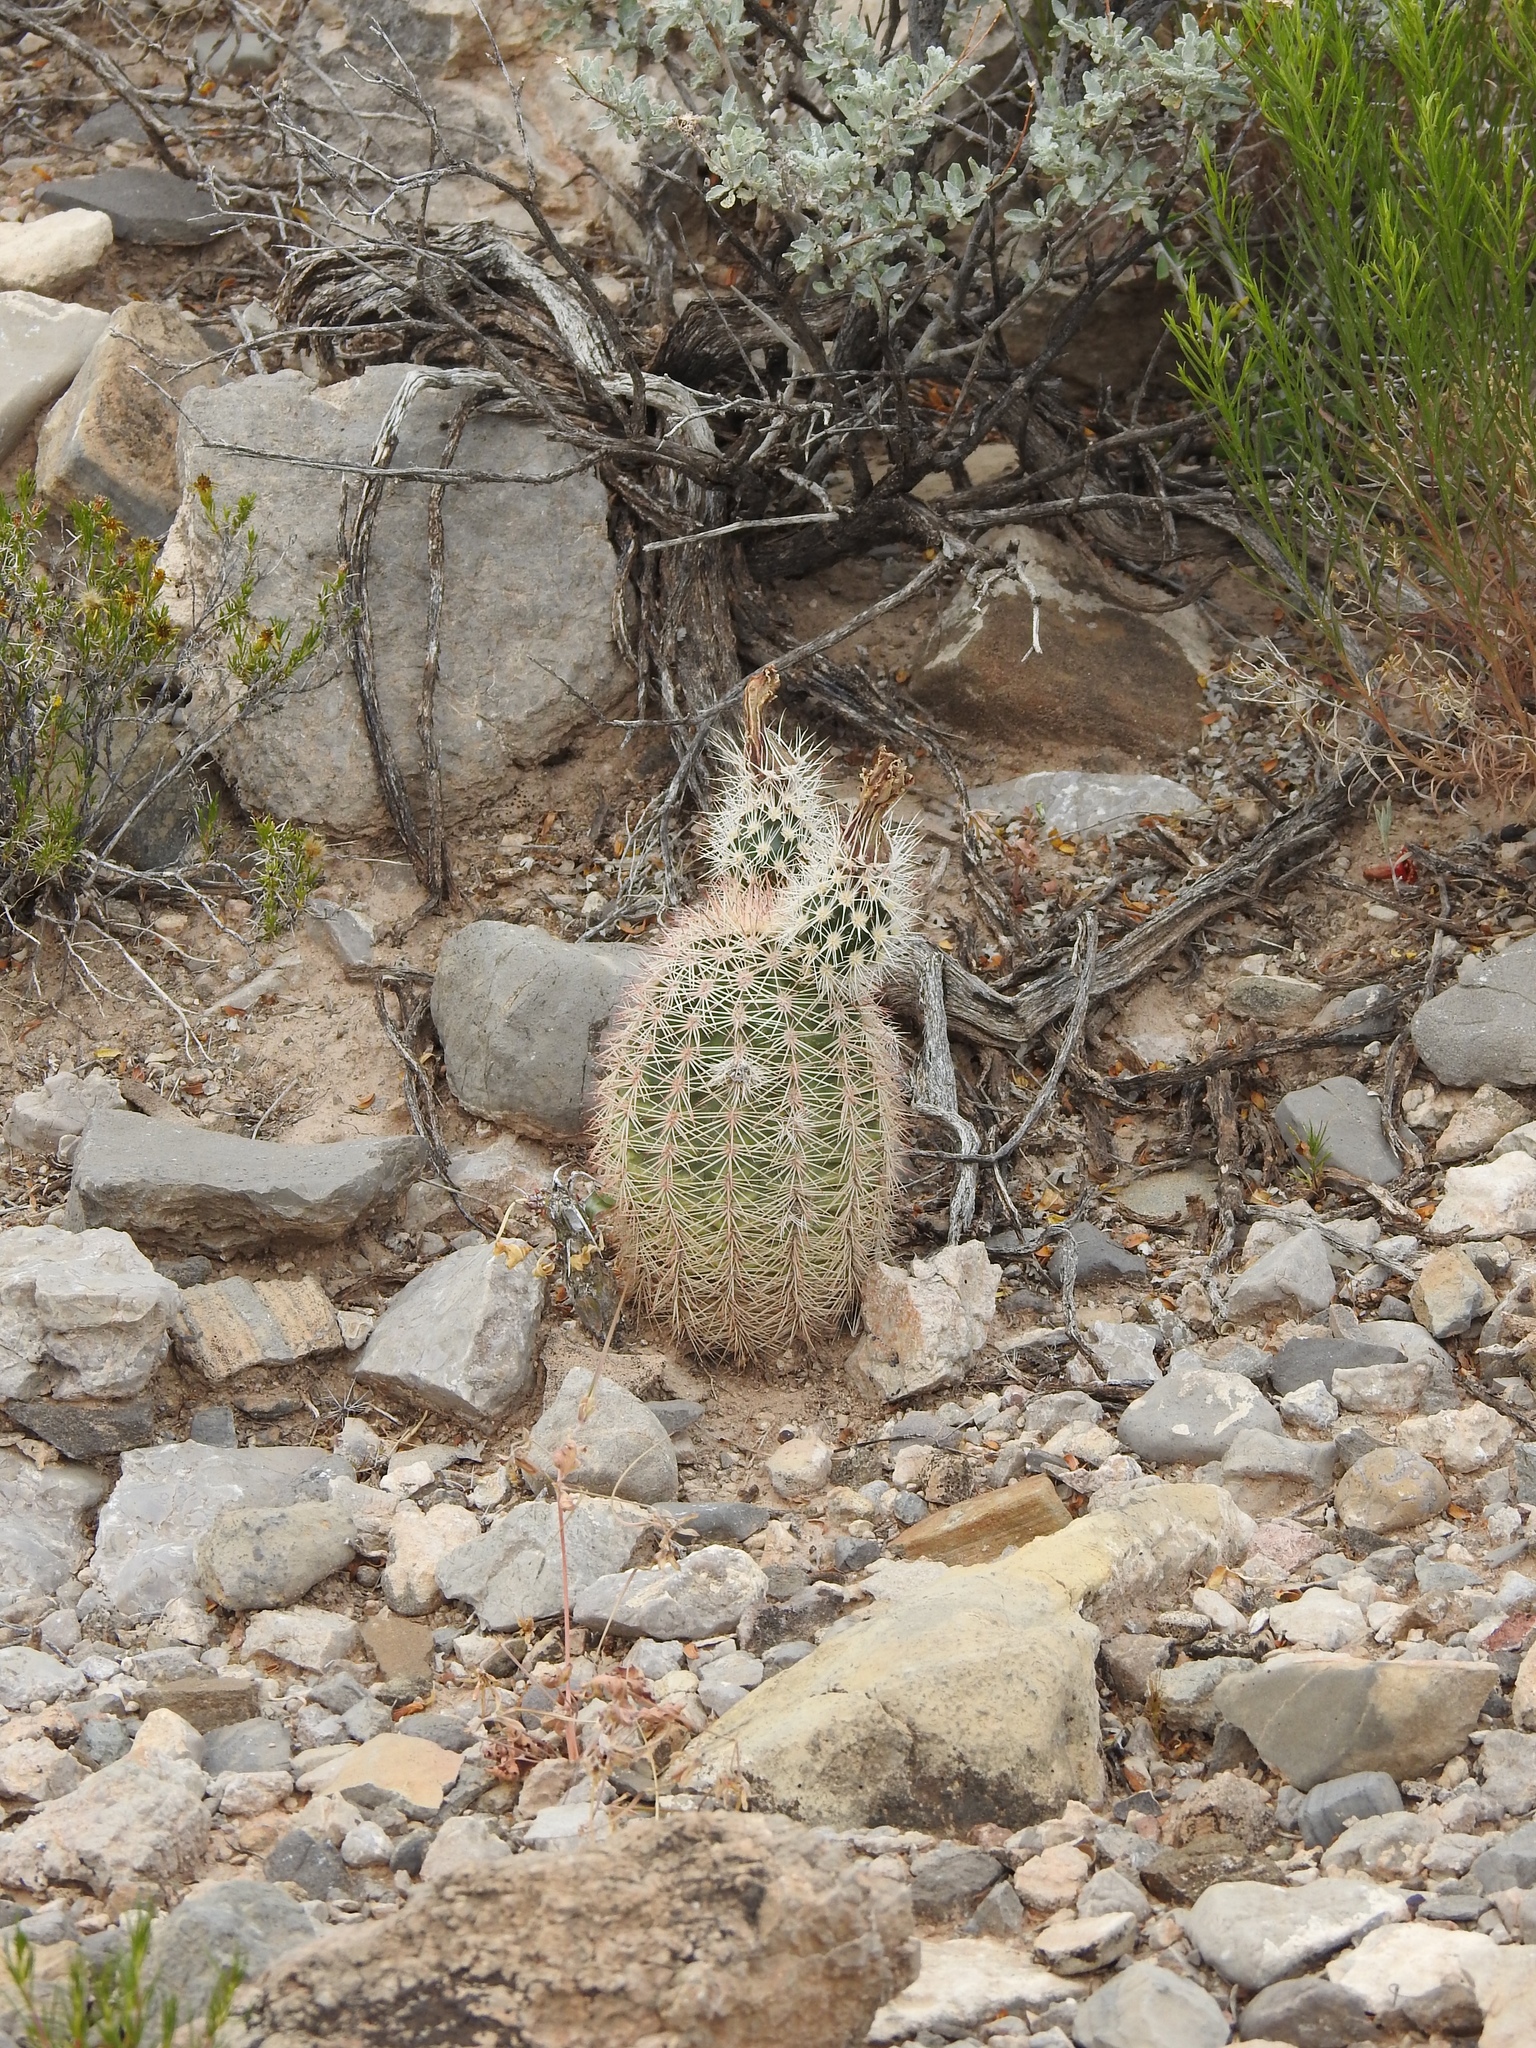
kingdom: Plantae
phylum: Tracheophyta
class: Magnoliopsida
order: Caryophyllales
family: Cactaceae
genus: Echinocereus
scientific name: Echinocereus dasyacanthus
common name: Spiny hedgehog cactus
